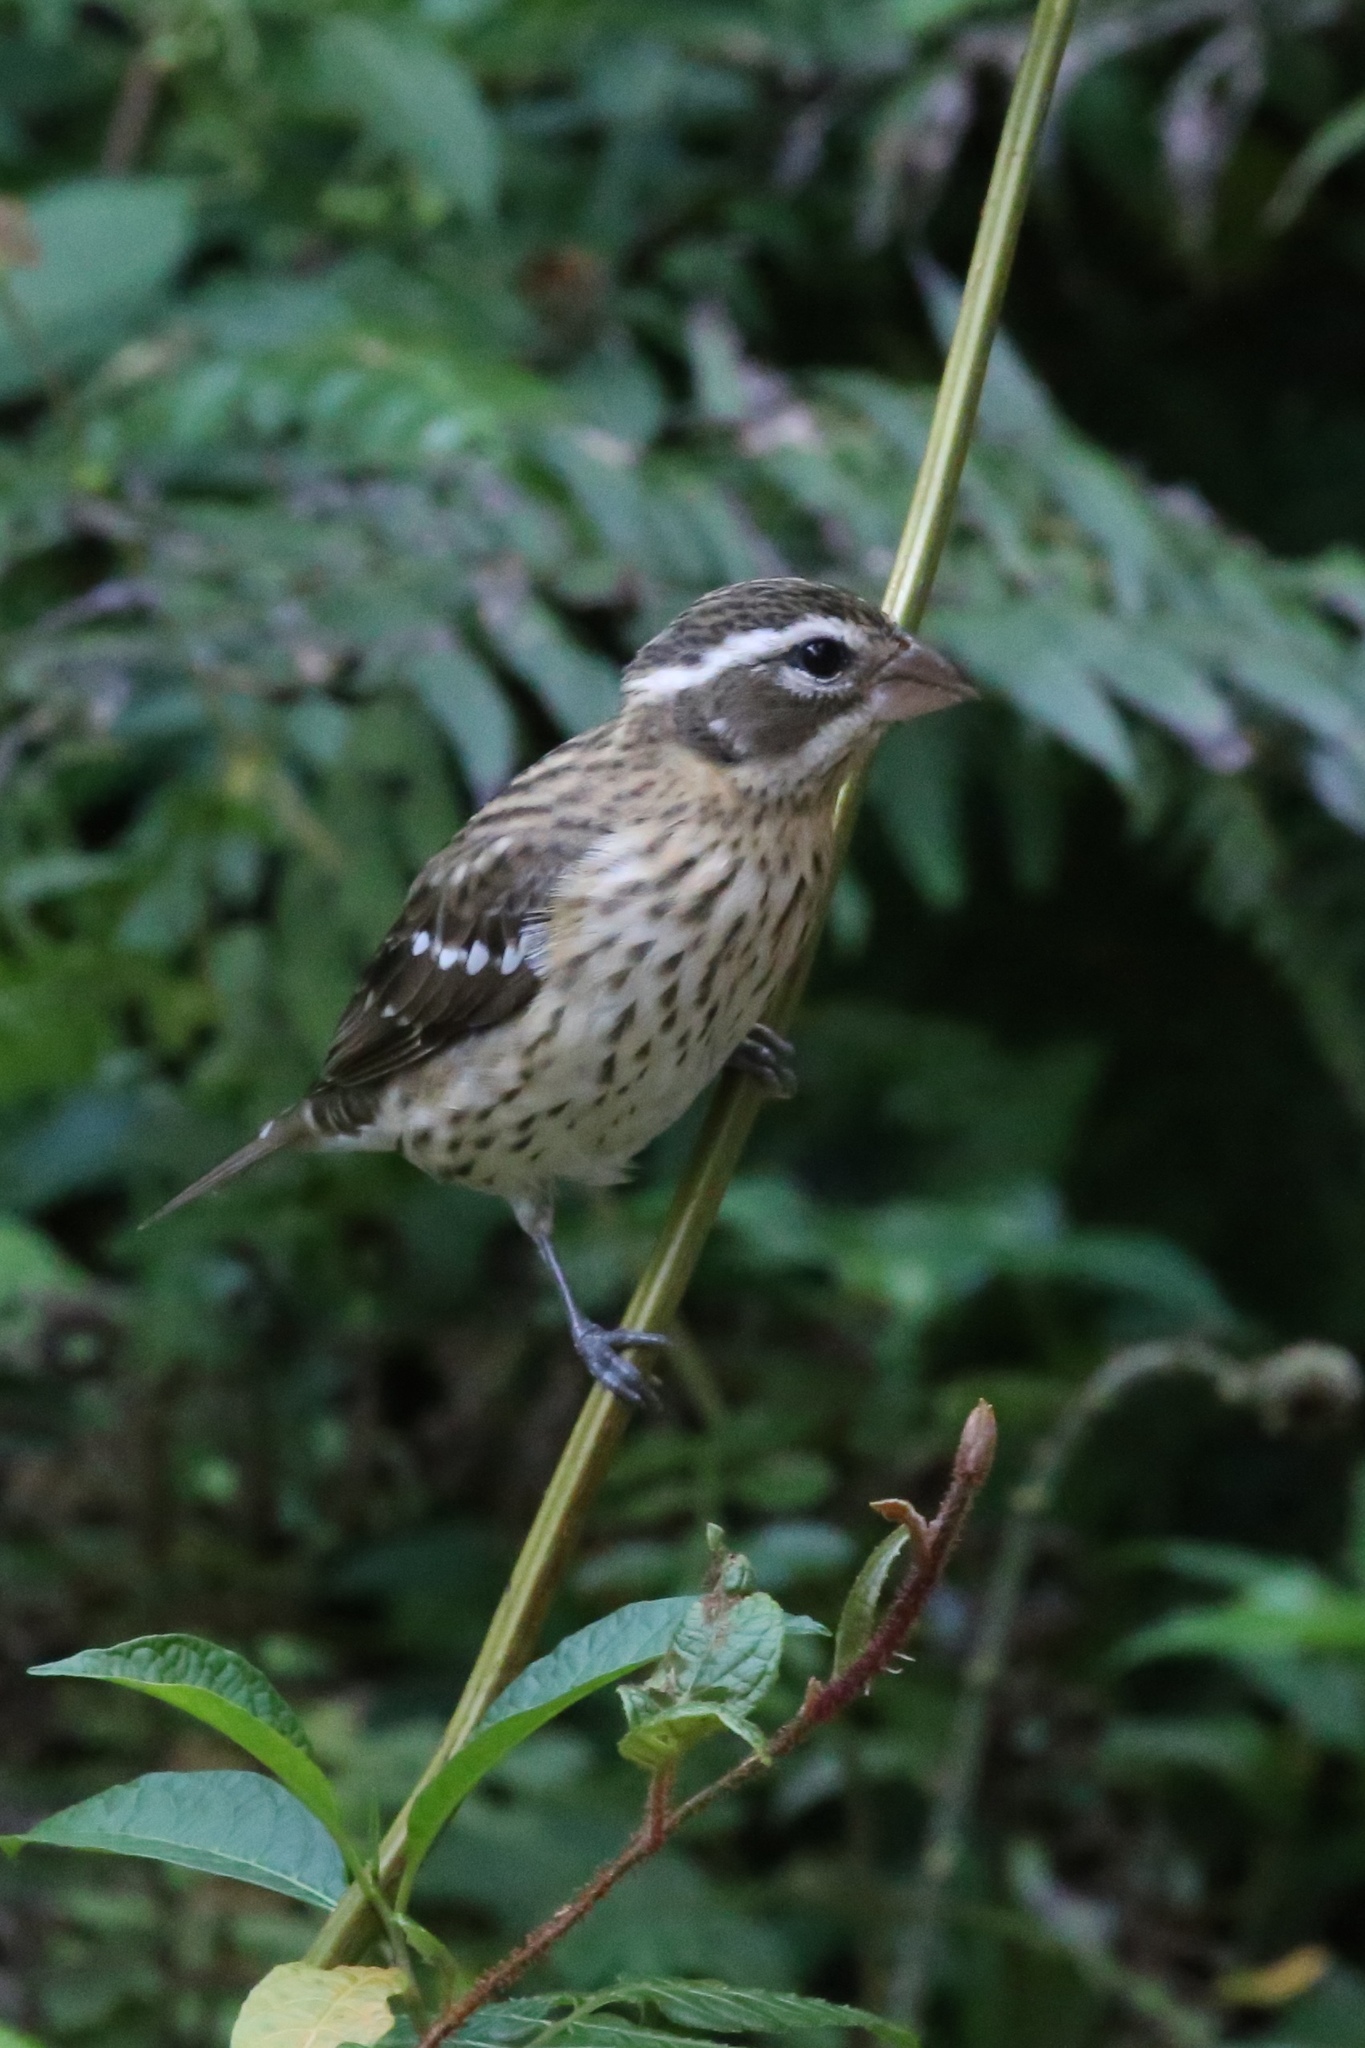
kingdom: Animalia
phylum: Chordata
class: Aves
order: Passeriformes
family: Cardinalidae
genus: Pheucticus
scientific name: Pheucticus ludovicianus
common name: Rose-breasted grosbeak
